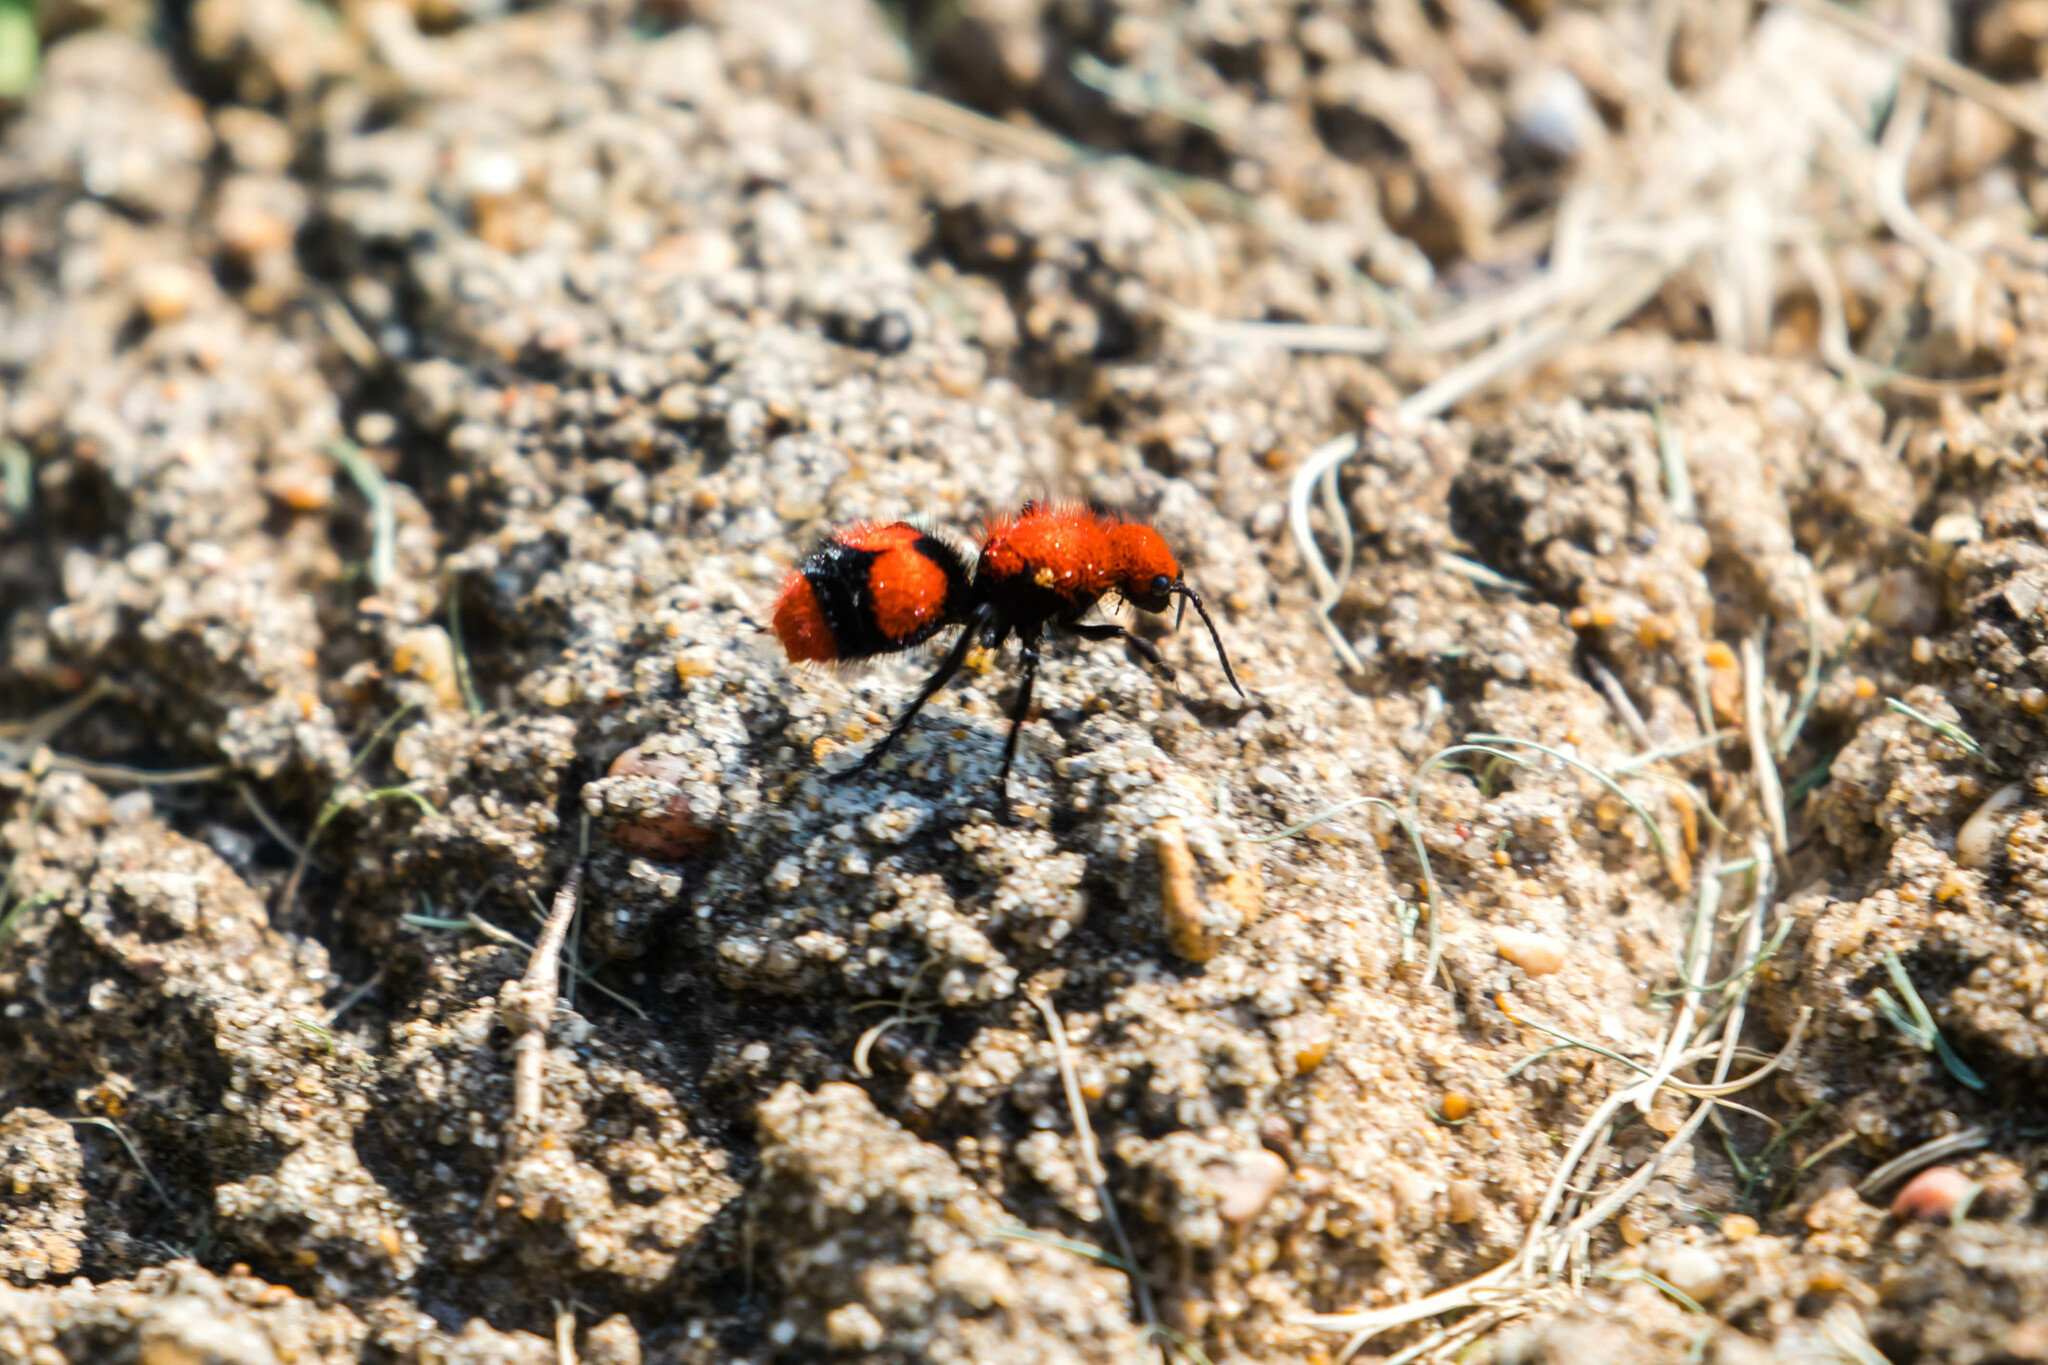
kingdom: Animalia
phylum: Arthropoda
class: Insecta
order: Hymenoptera
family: Mutillidae
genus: Dasymutilla
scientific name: Dasymutilla occidentalis
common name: Common eastern velvet ant
